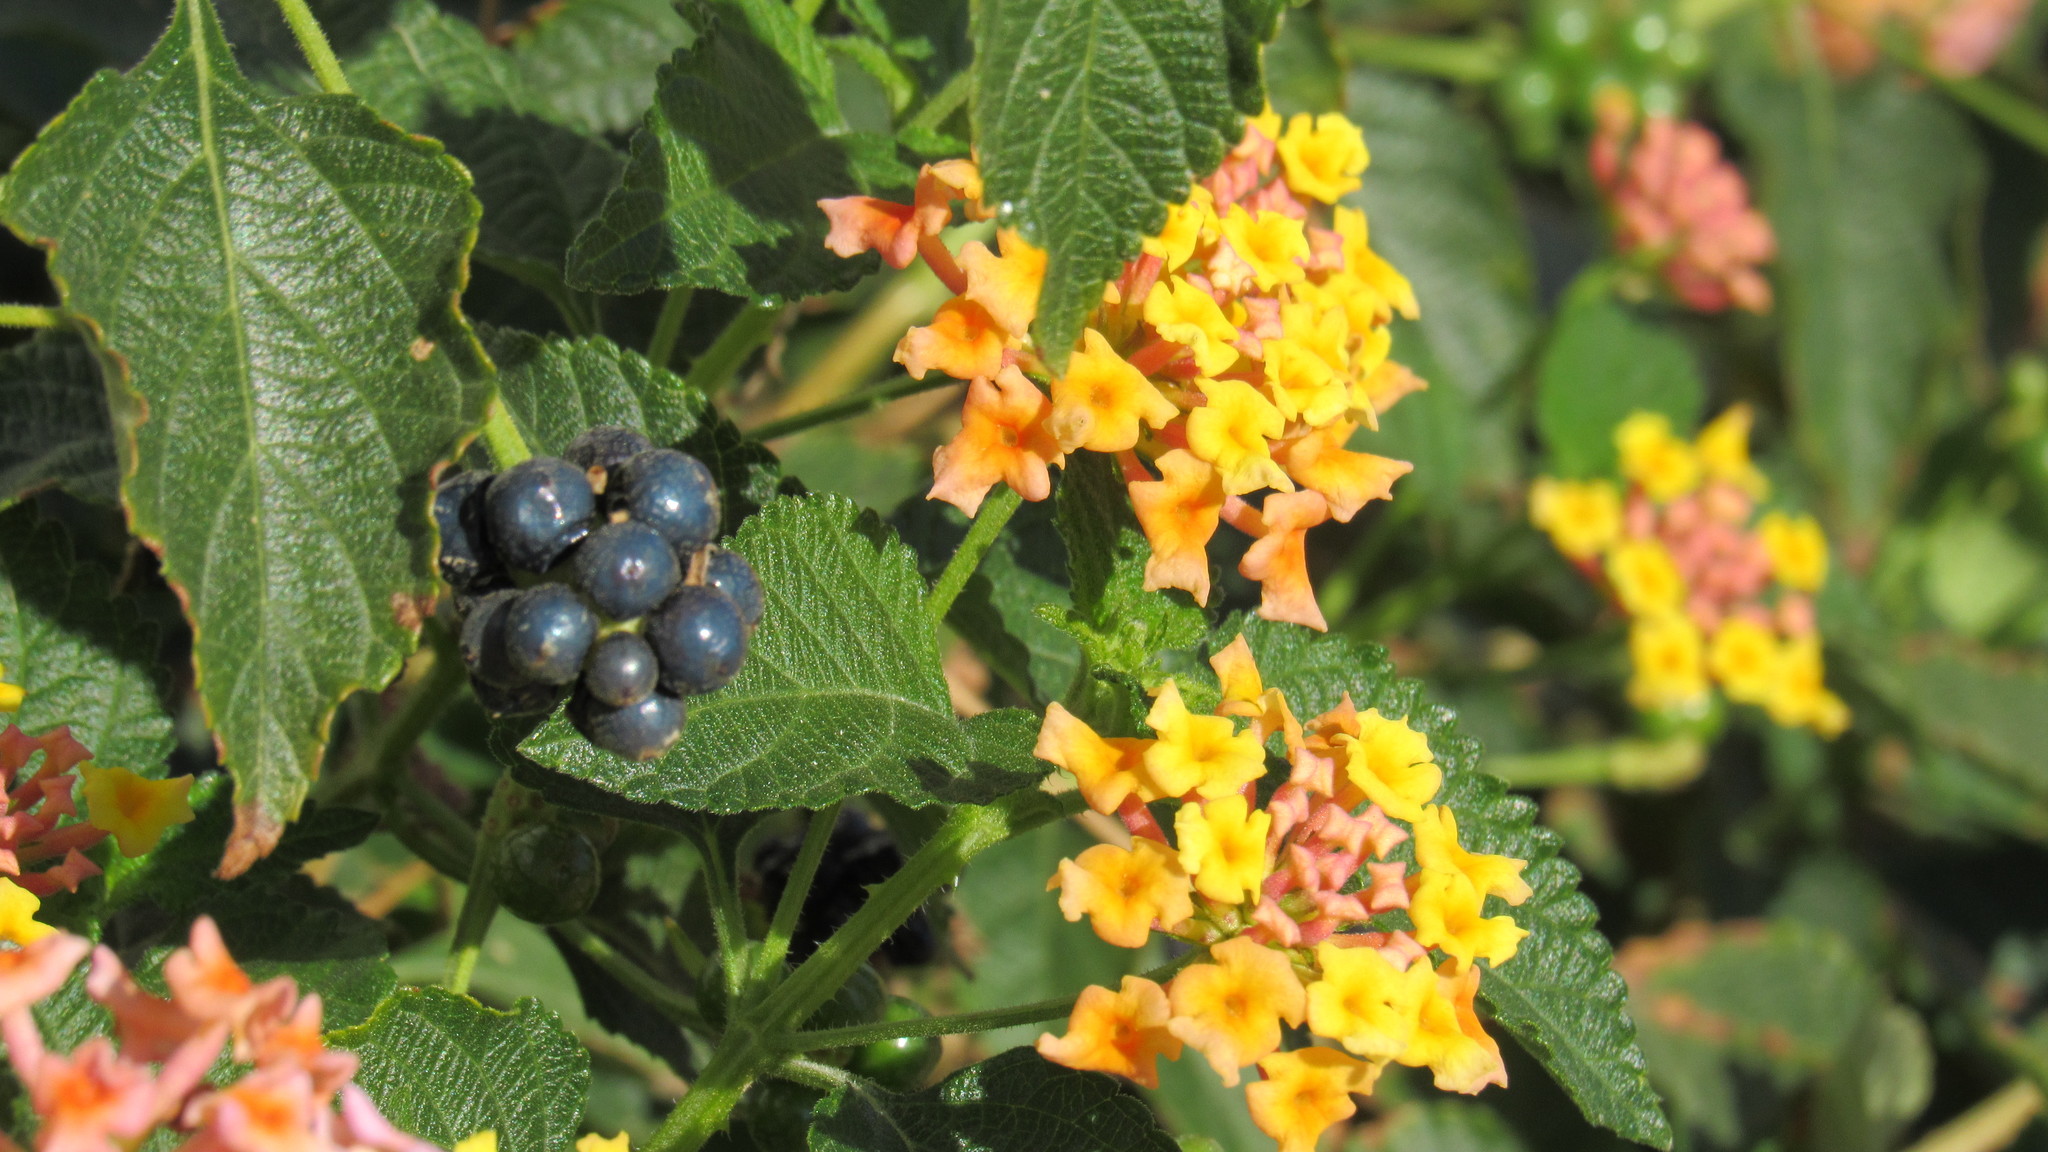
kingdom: Plantae
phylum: Tracheophyta
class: Magnoliopsida
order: Lamiales
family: Verbenaceae
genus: Lantana
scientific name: Lantana camara
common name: Lantana
